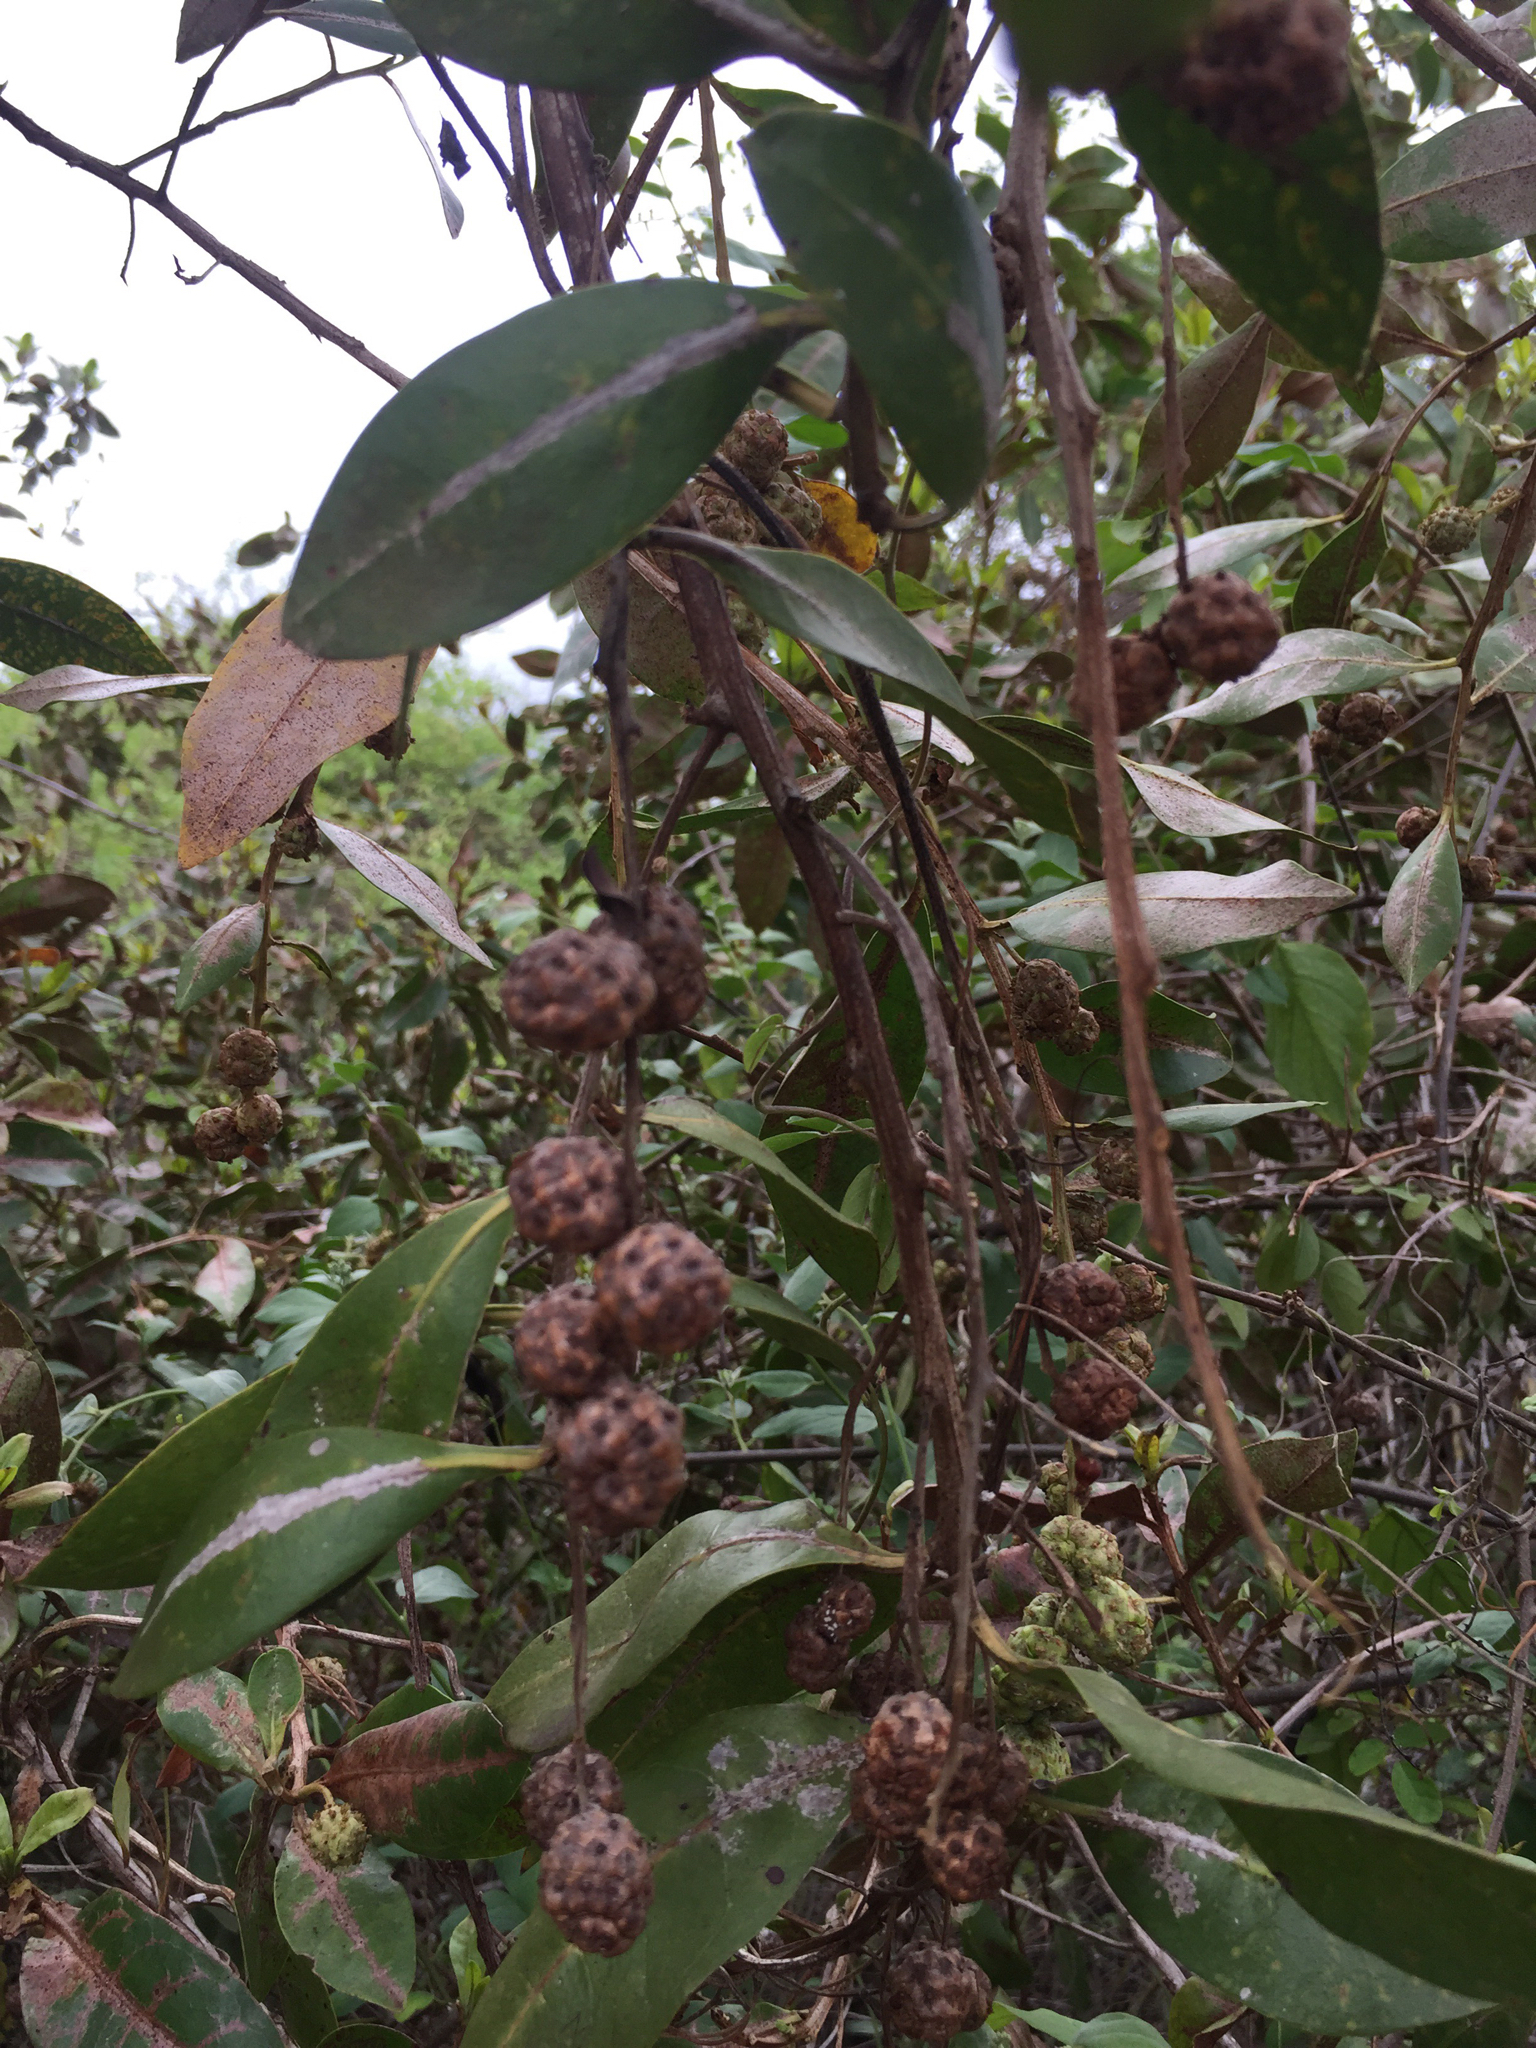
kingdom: Plantae
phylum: Tracheophyta
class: Magnoliopsida
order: Myrtales
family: Combretaceae
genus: Conocarpus
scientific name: Conocarpus erectus
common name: Button mangrove
